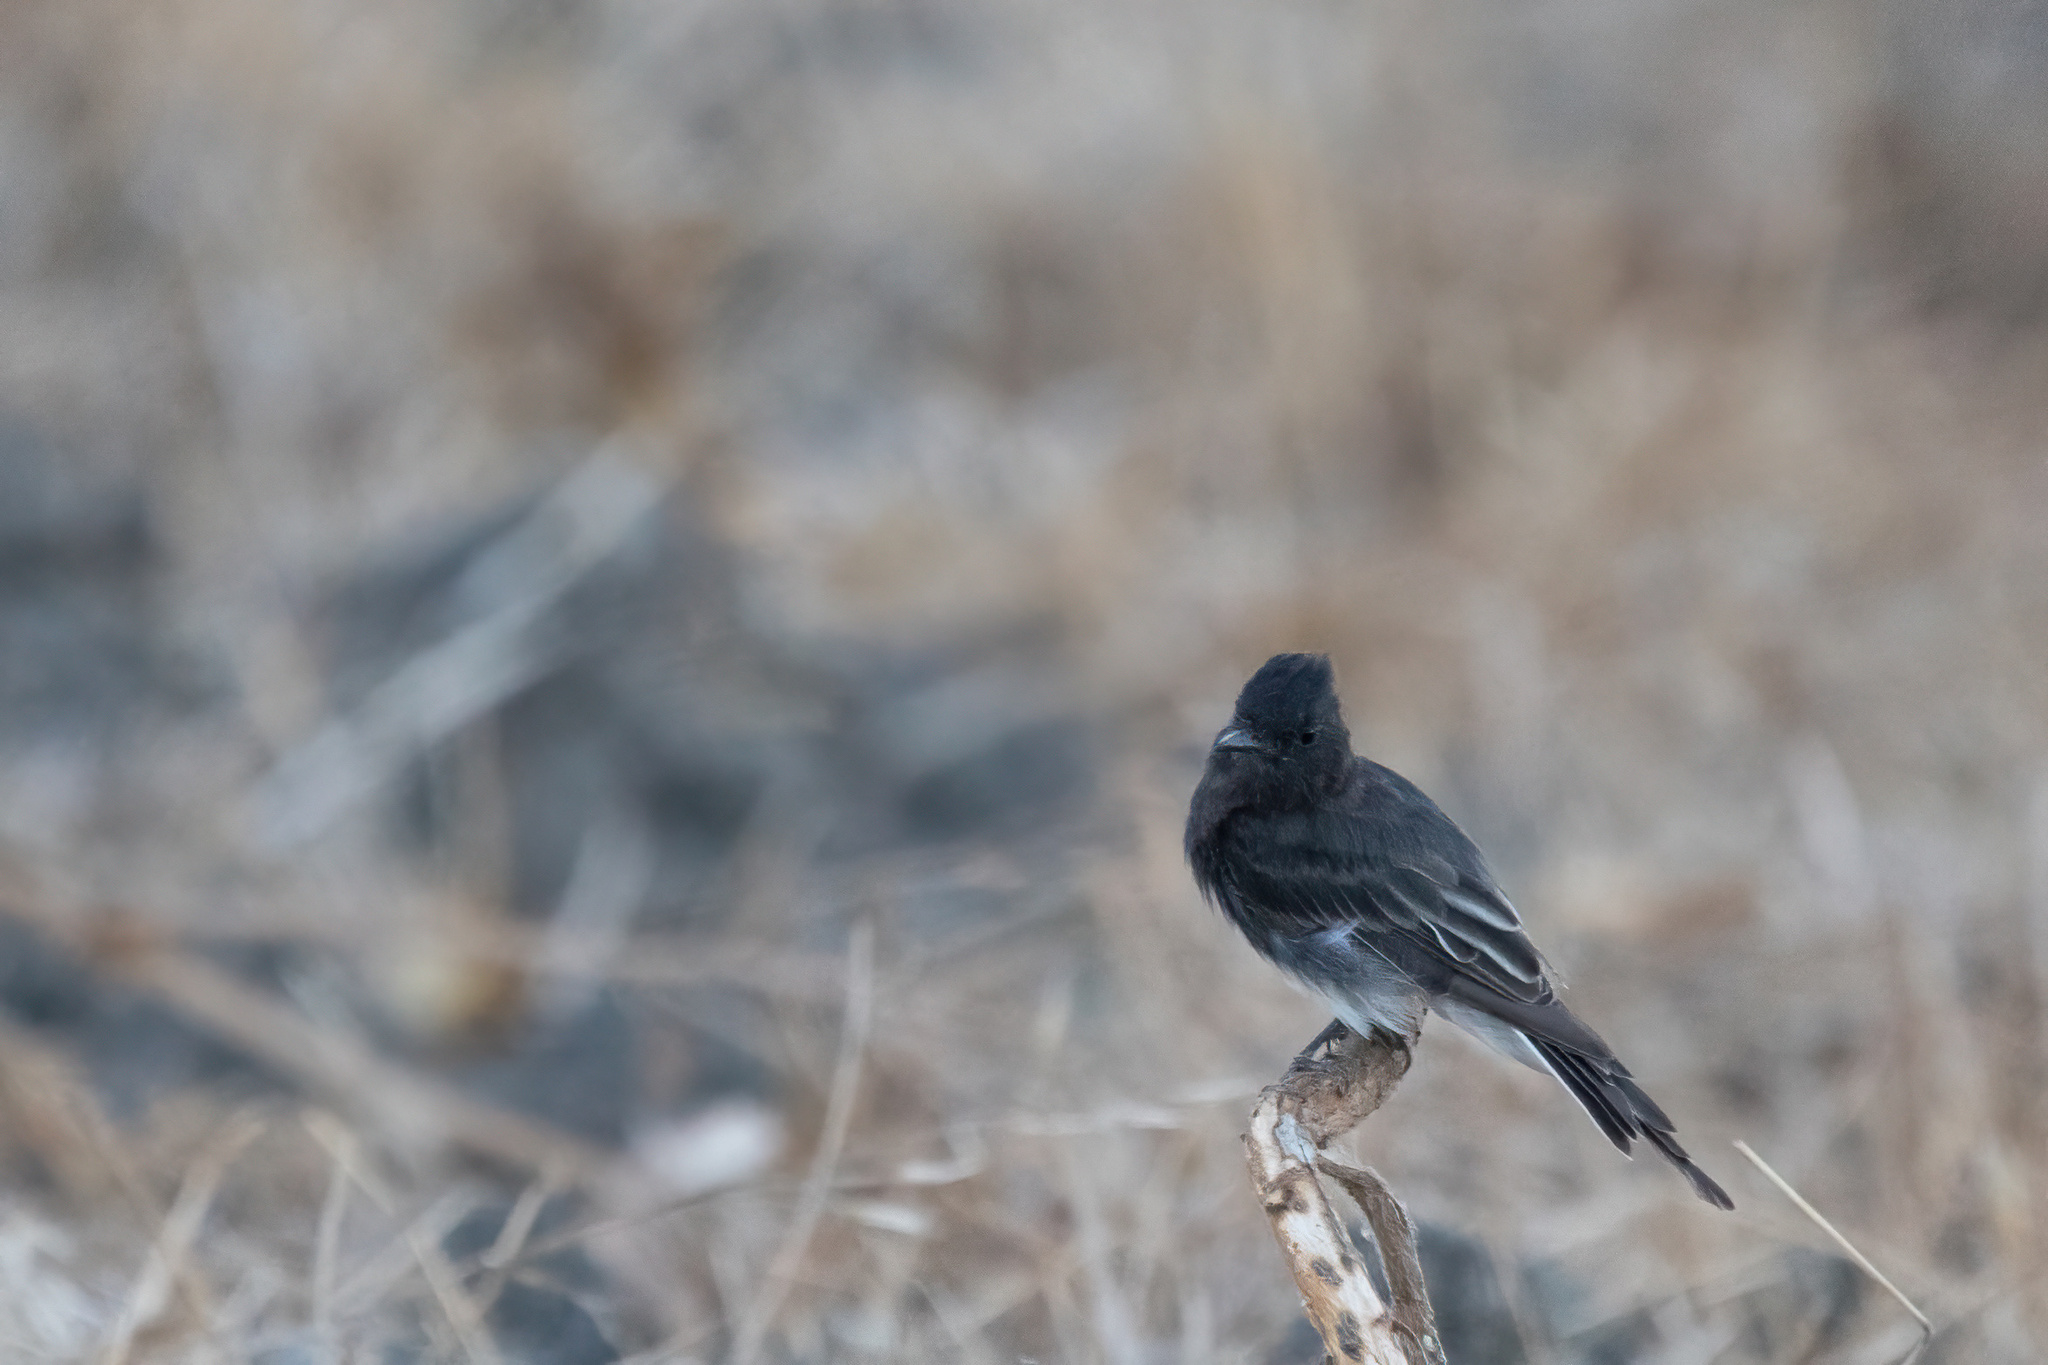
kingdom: Animalia
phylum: Chordata
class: Aves
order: Passeriformes
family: Tyrannidae
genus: Sayornis
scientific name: Sayornis nigricans
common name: Black phoebe
